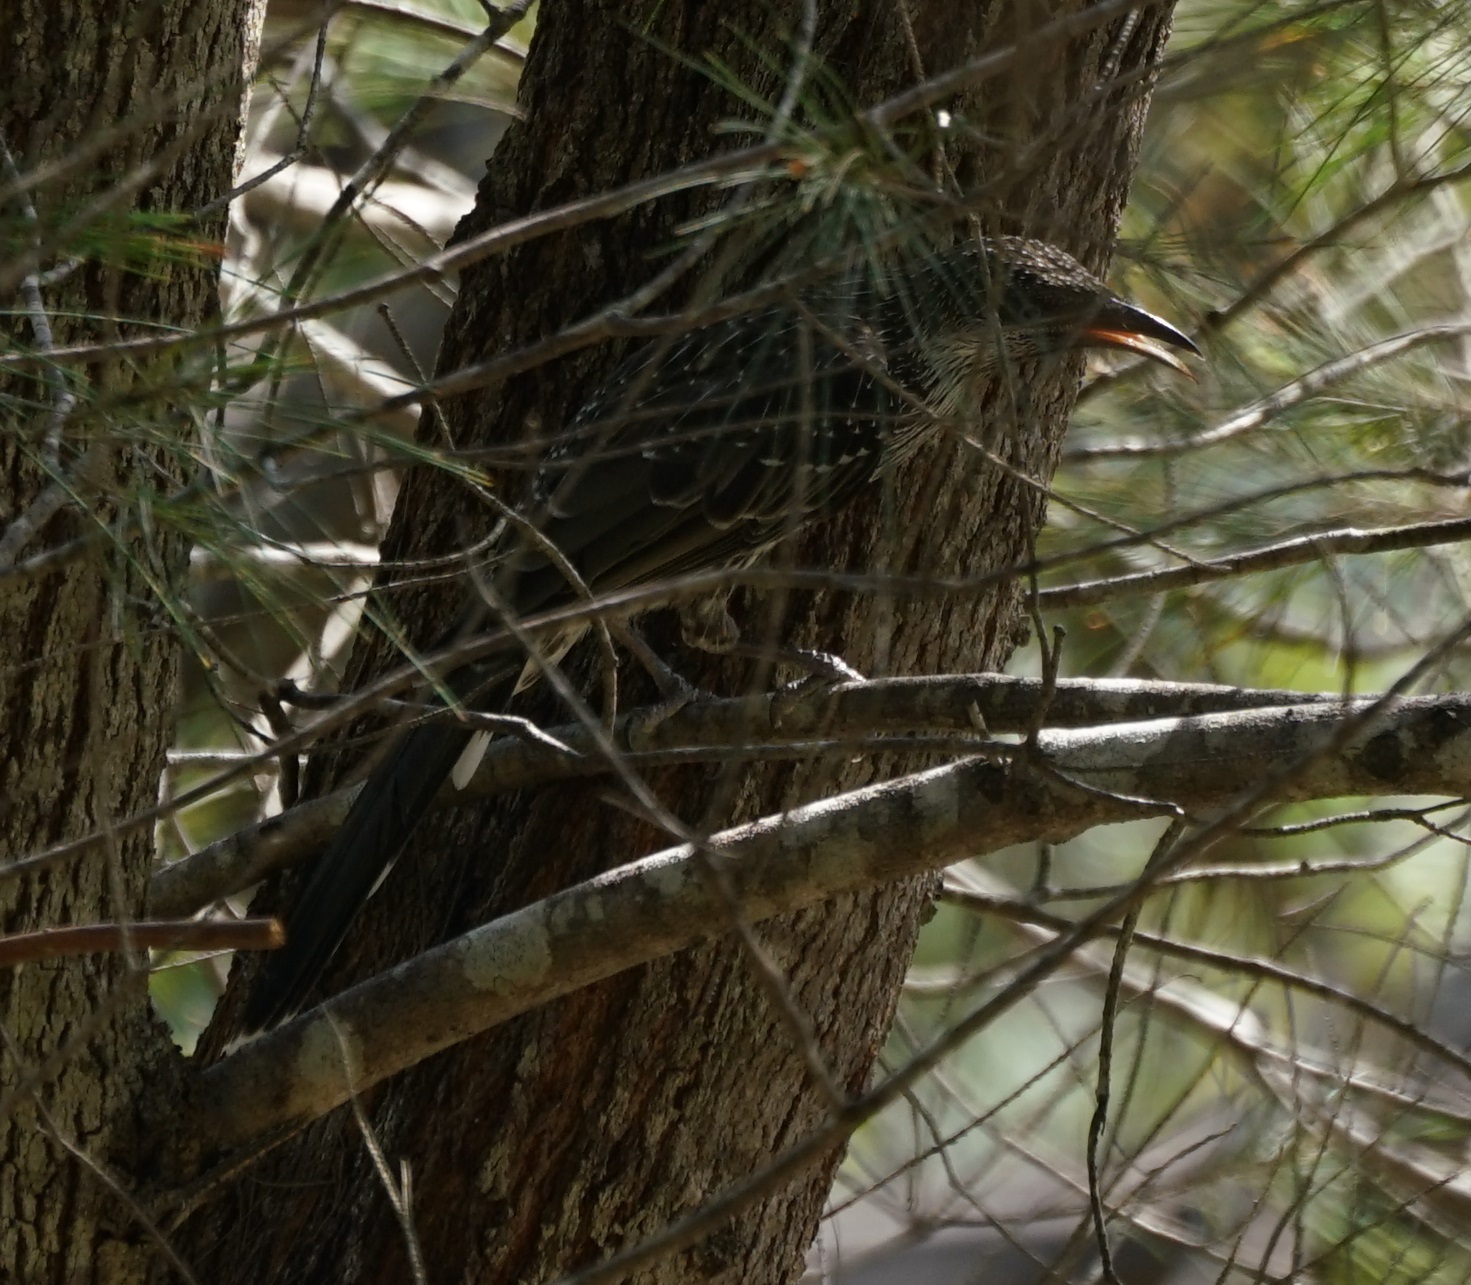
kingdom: Animalia
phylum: Chordata
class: Aves
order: Passeriformes
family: Meliphagidae
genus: Anthochaera
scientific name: Anthochaera chrysoptera
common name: Little wattlebird
